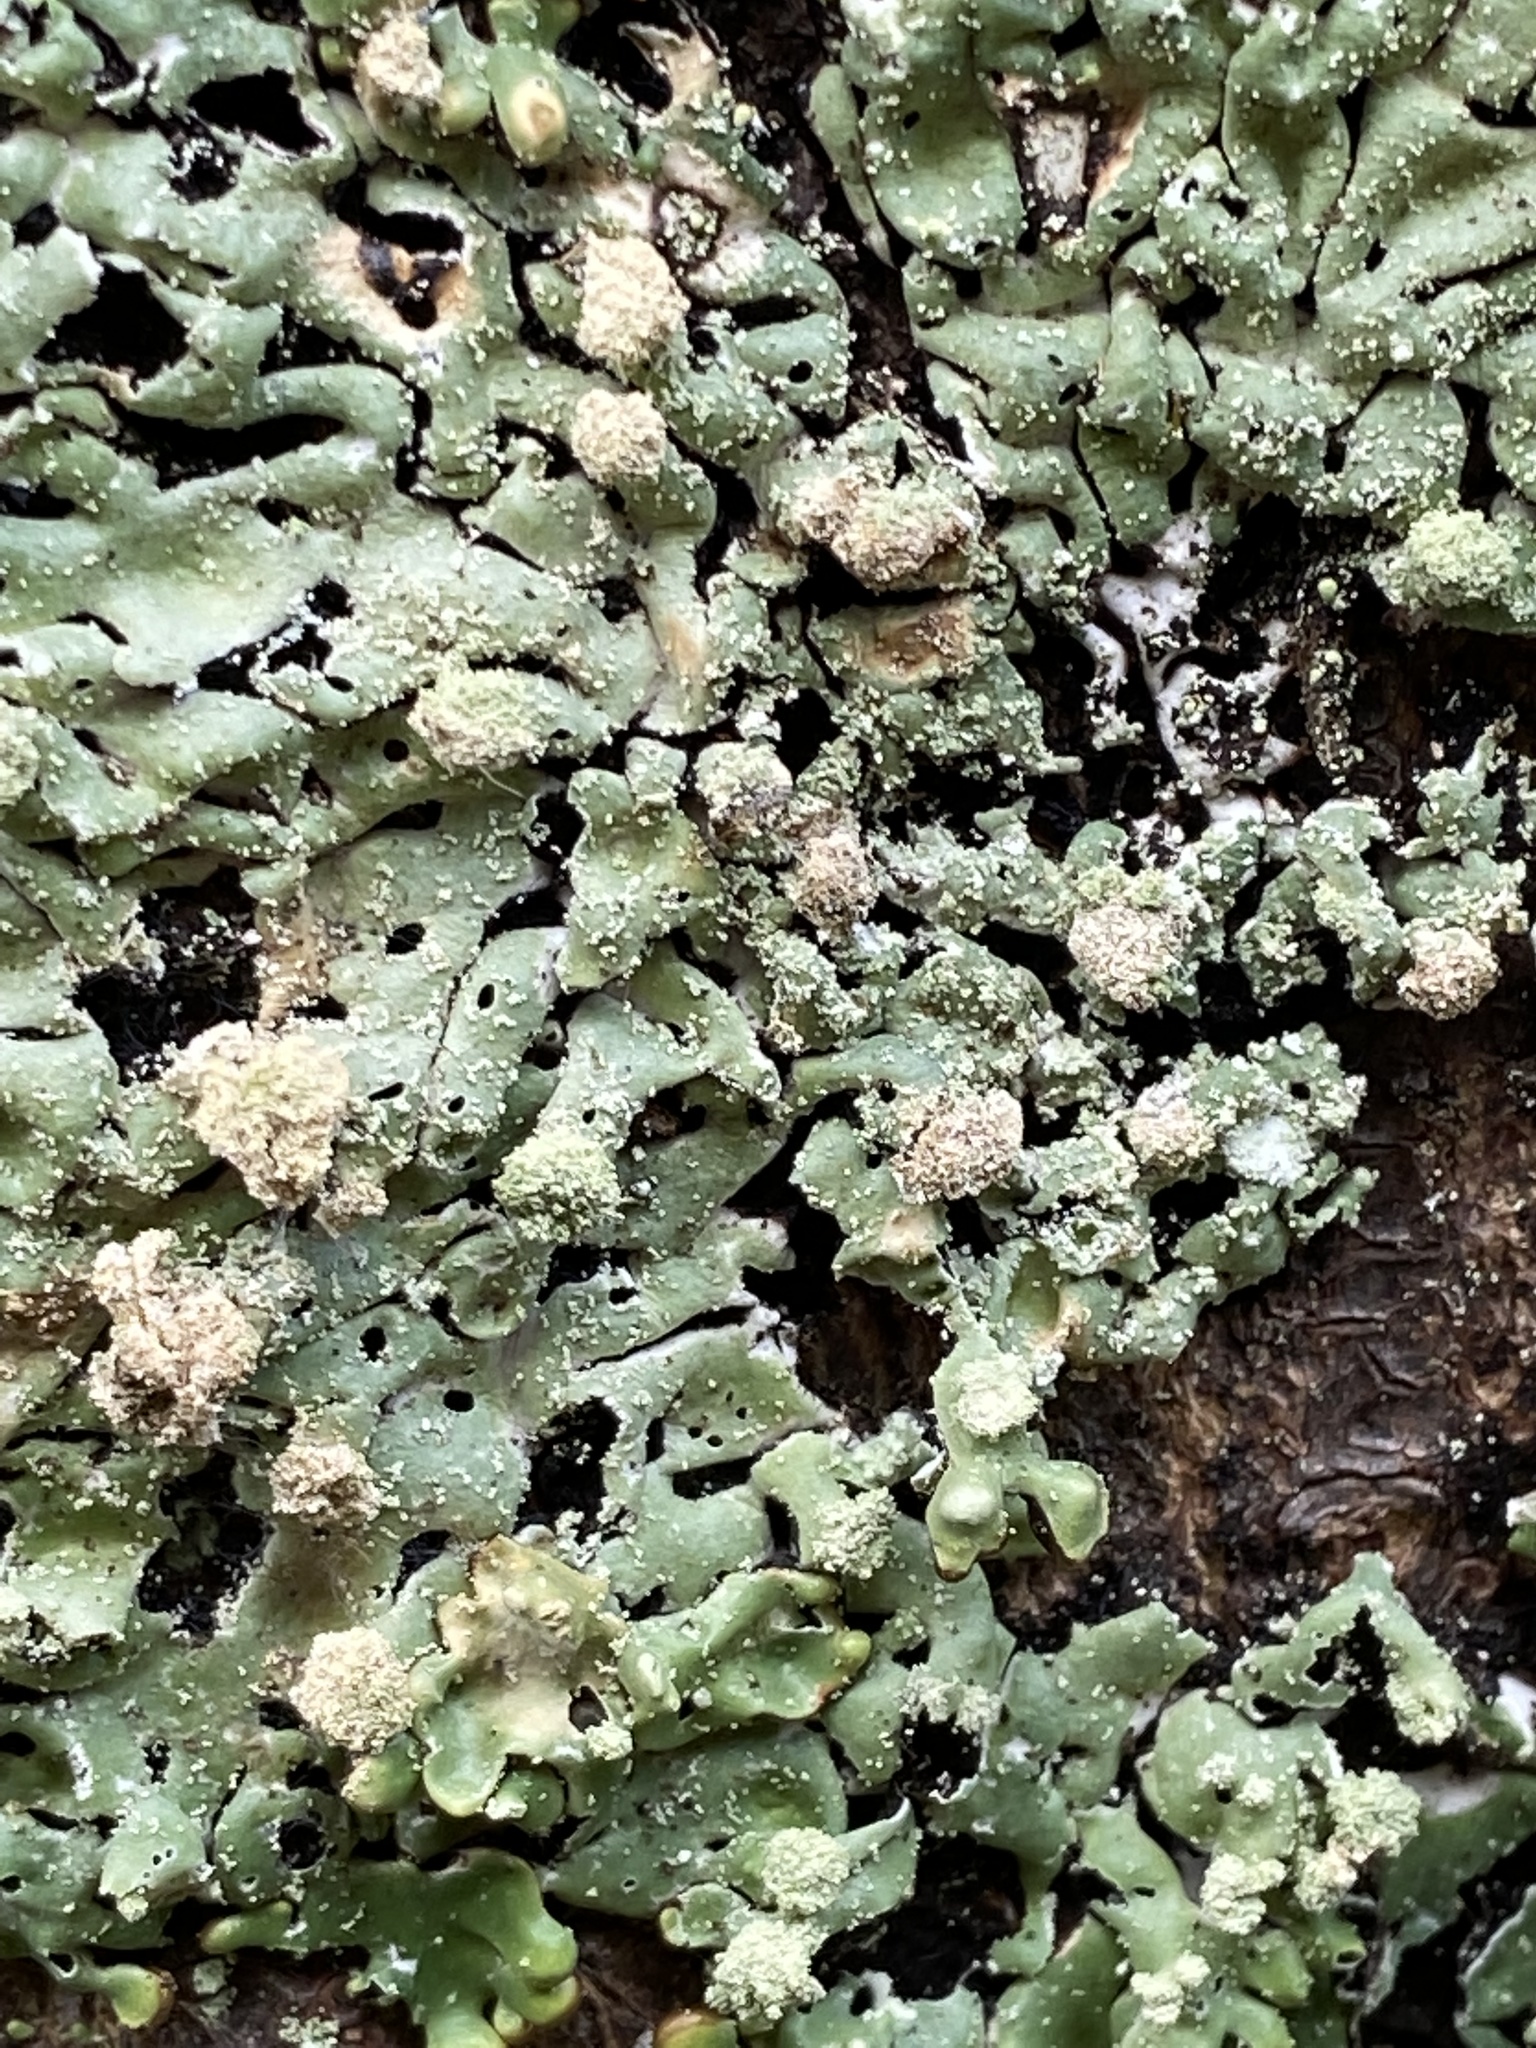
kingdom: Fungi
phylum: Ascomycota
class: Lecanoromycetes
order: Lecanorales
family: Parmeliaceae
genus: Menegazzia
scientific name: Menegazzia terebrata
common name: Magic treeflute lichen
